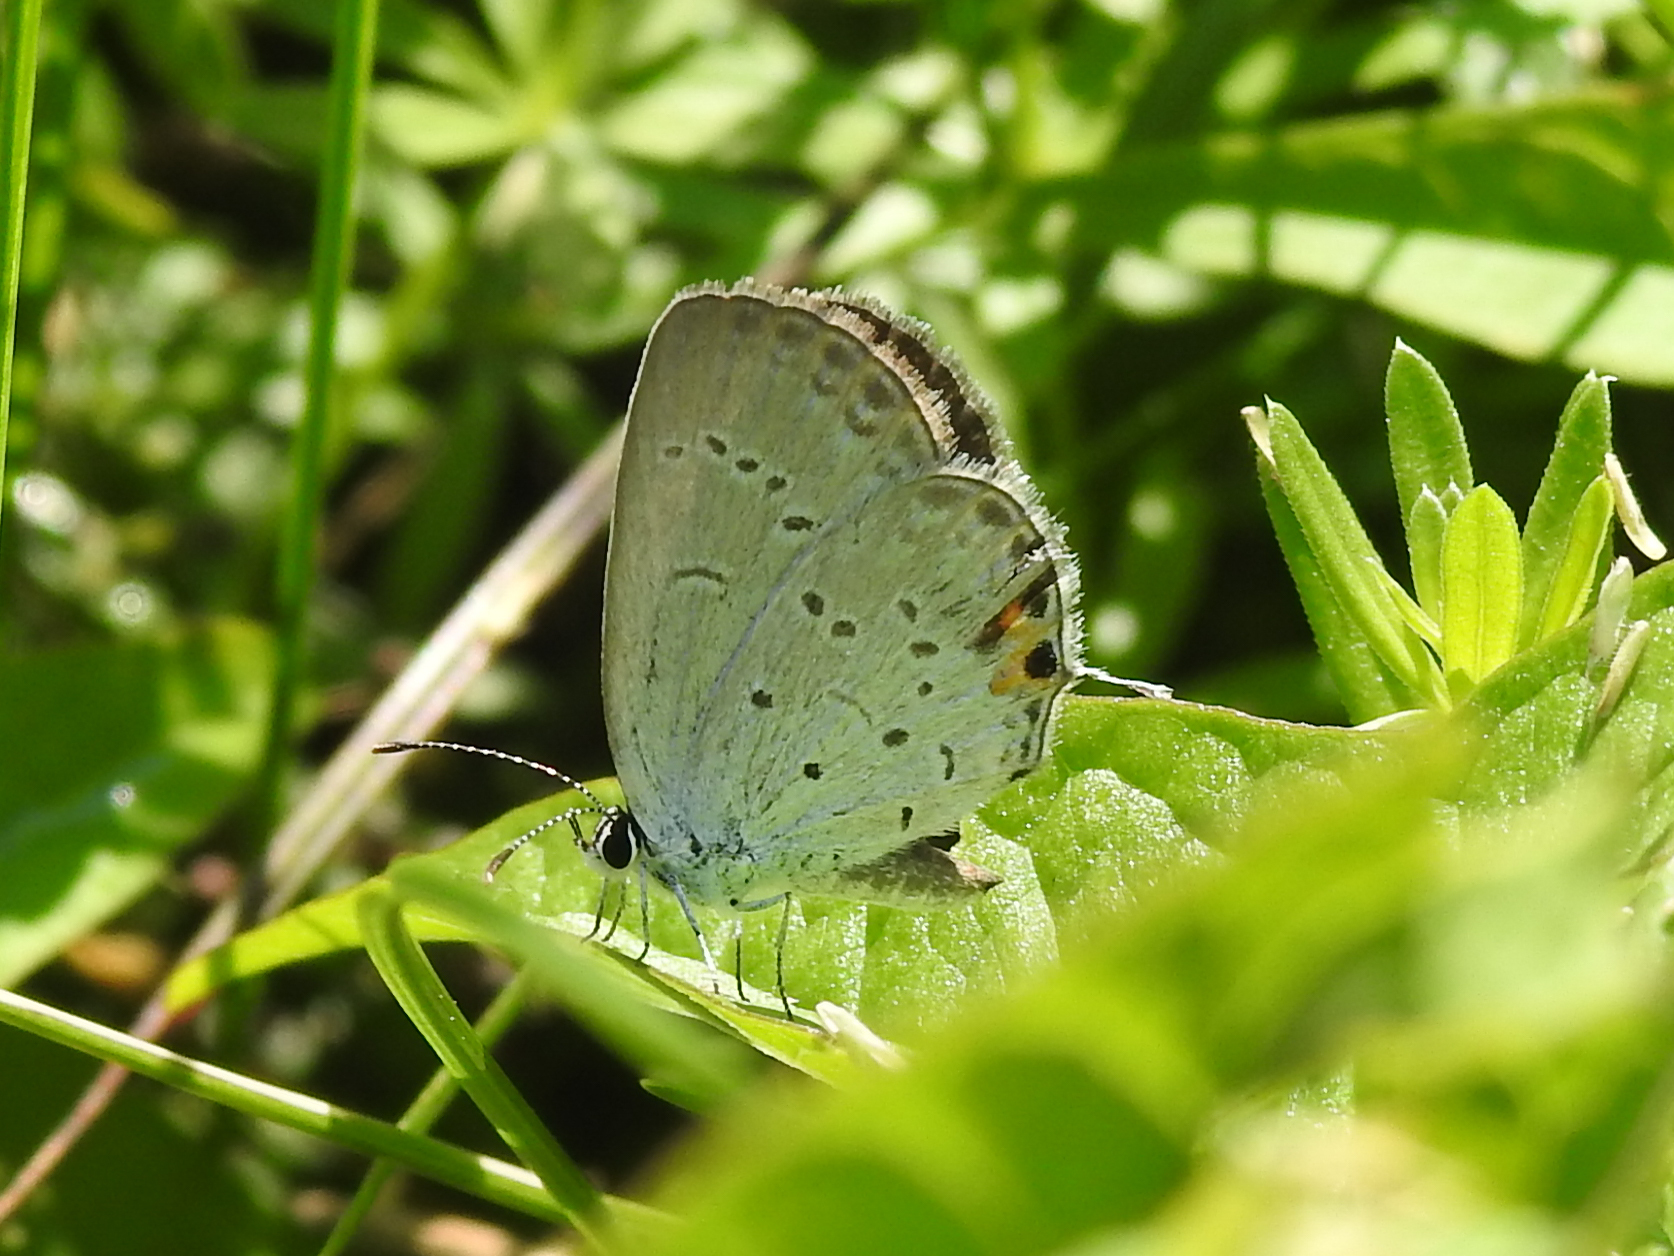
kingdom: Animalia
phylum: Arthropoda
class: Insecta
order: Lepidoptera
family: Lycaenidae
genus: Elkalyce
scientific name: Elkalyce comyntas
